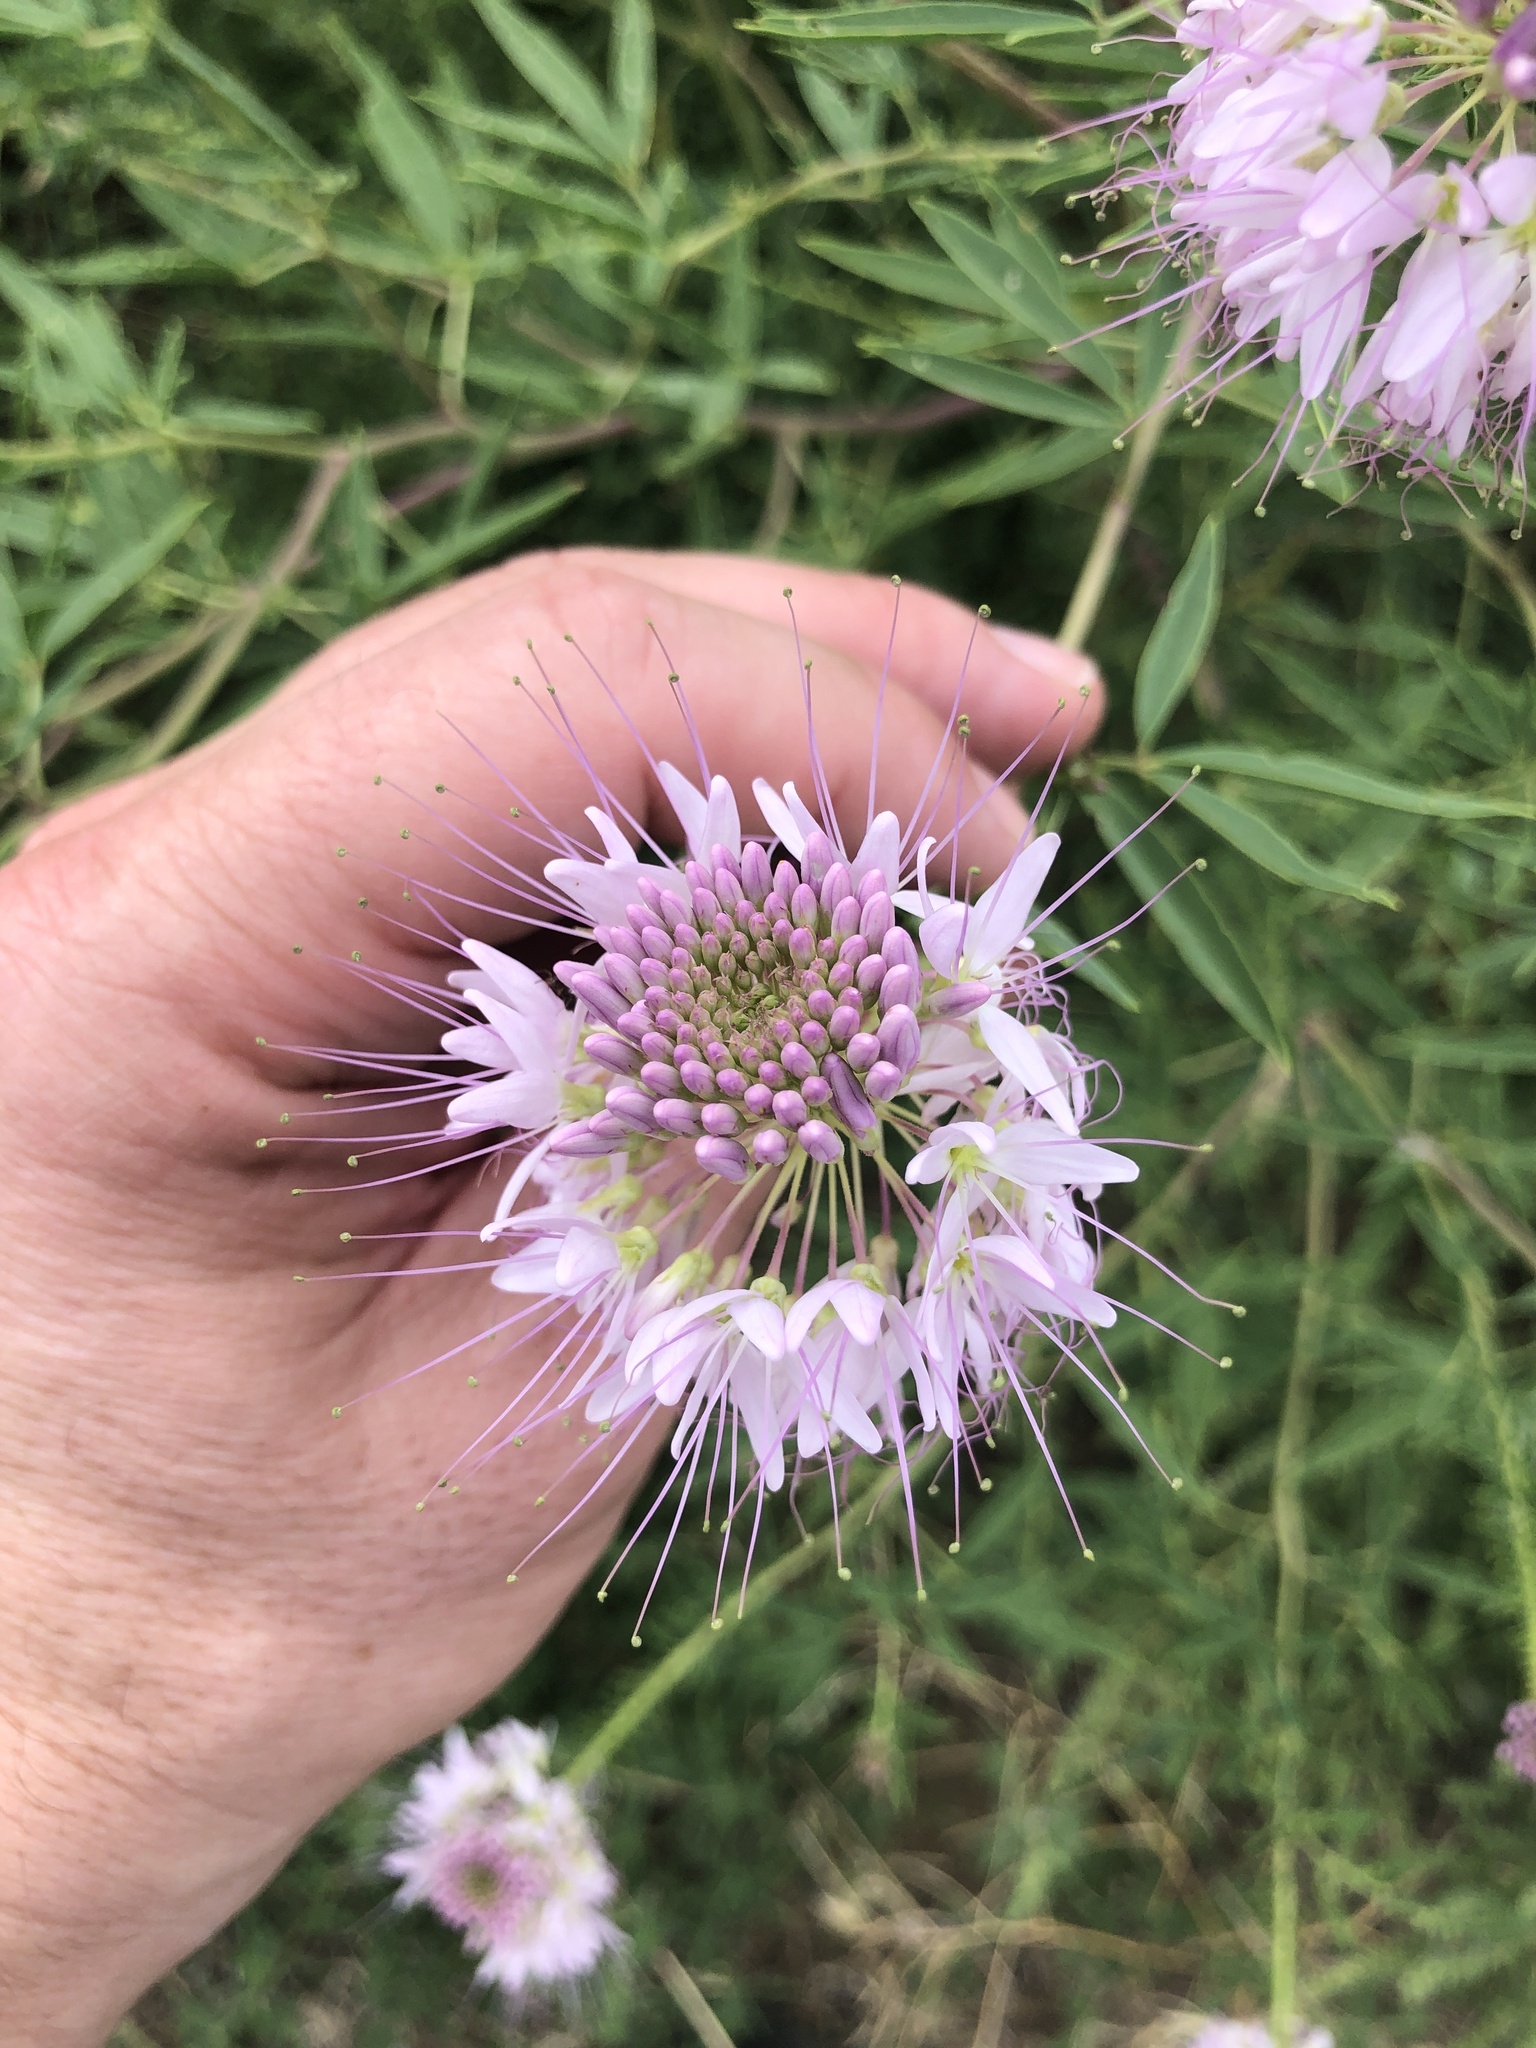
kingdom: Plantae
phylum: Tracheophyta
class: Magnoliopsida
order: Brassicales
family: Cleomaceae
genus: Cleomella
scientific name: Cleomella serrulata
